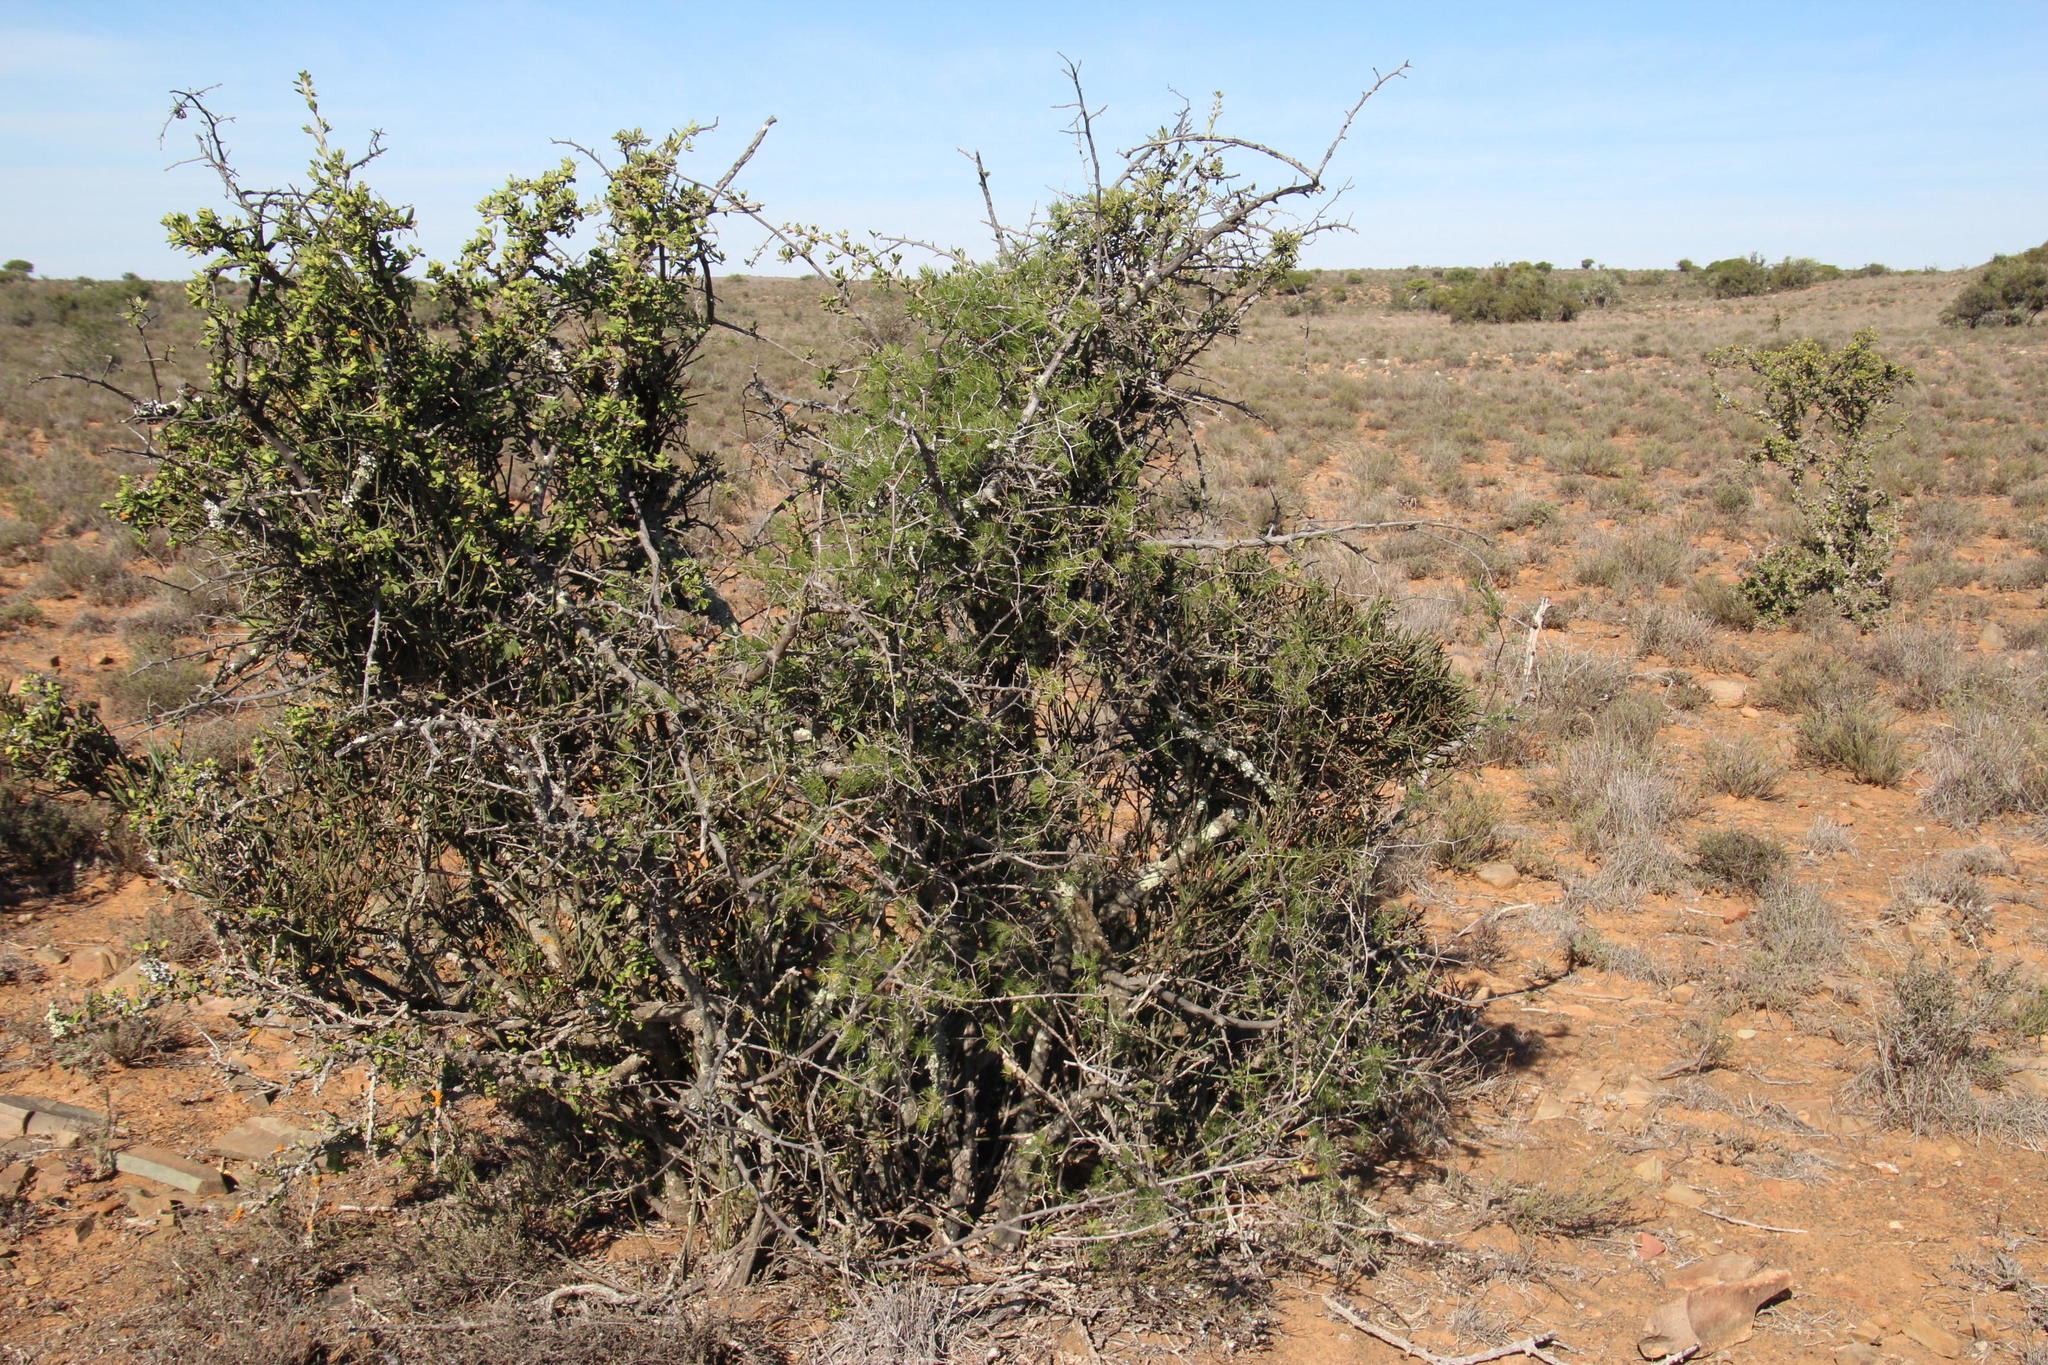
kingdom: Plantae
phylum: Tracheophyta
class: Liliopsida
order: Asparagales
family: Asparagaceae
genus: Asparagus
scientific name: Asparagus retrofractus
